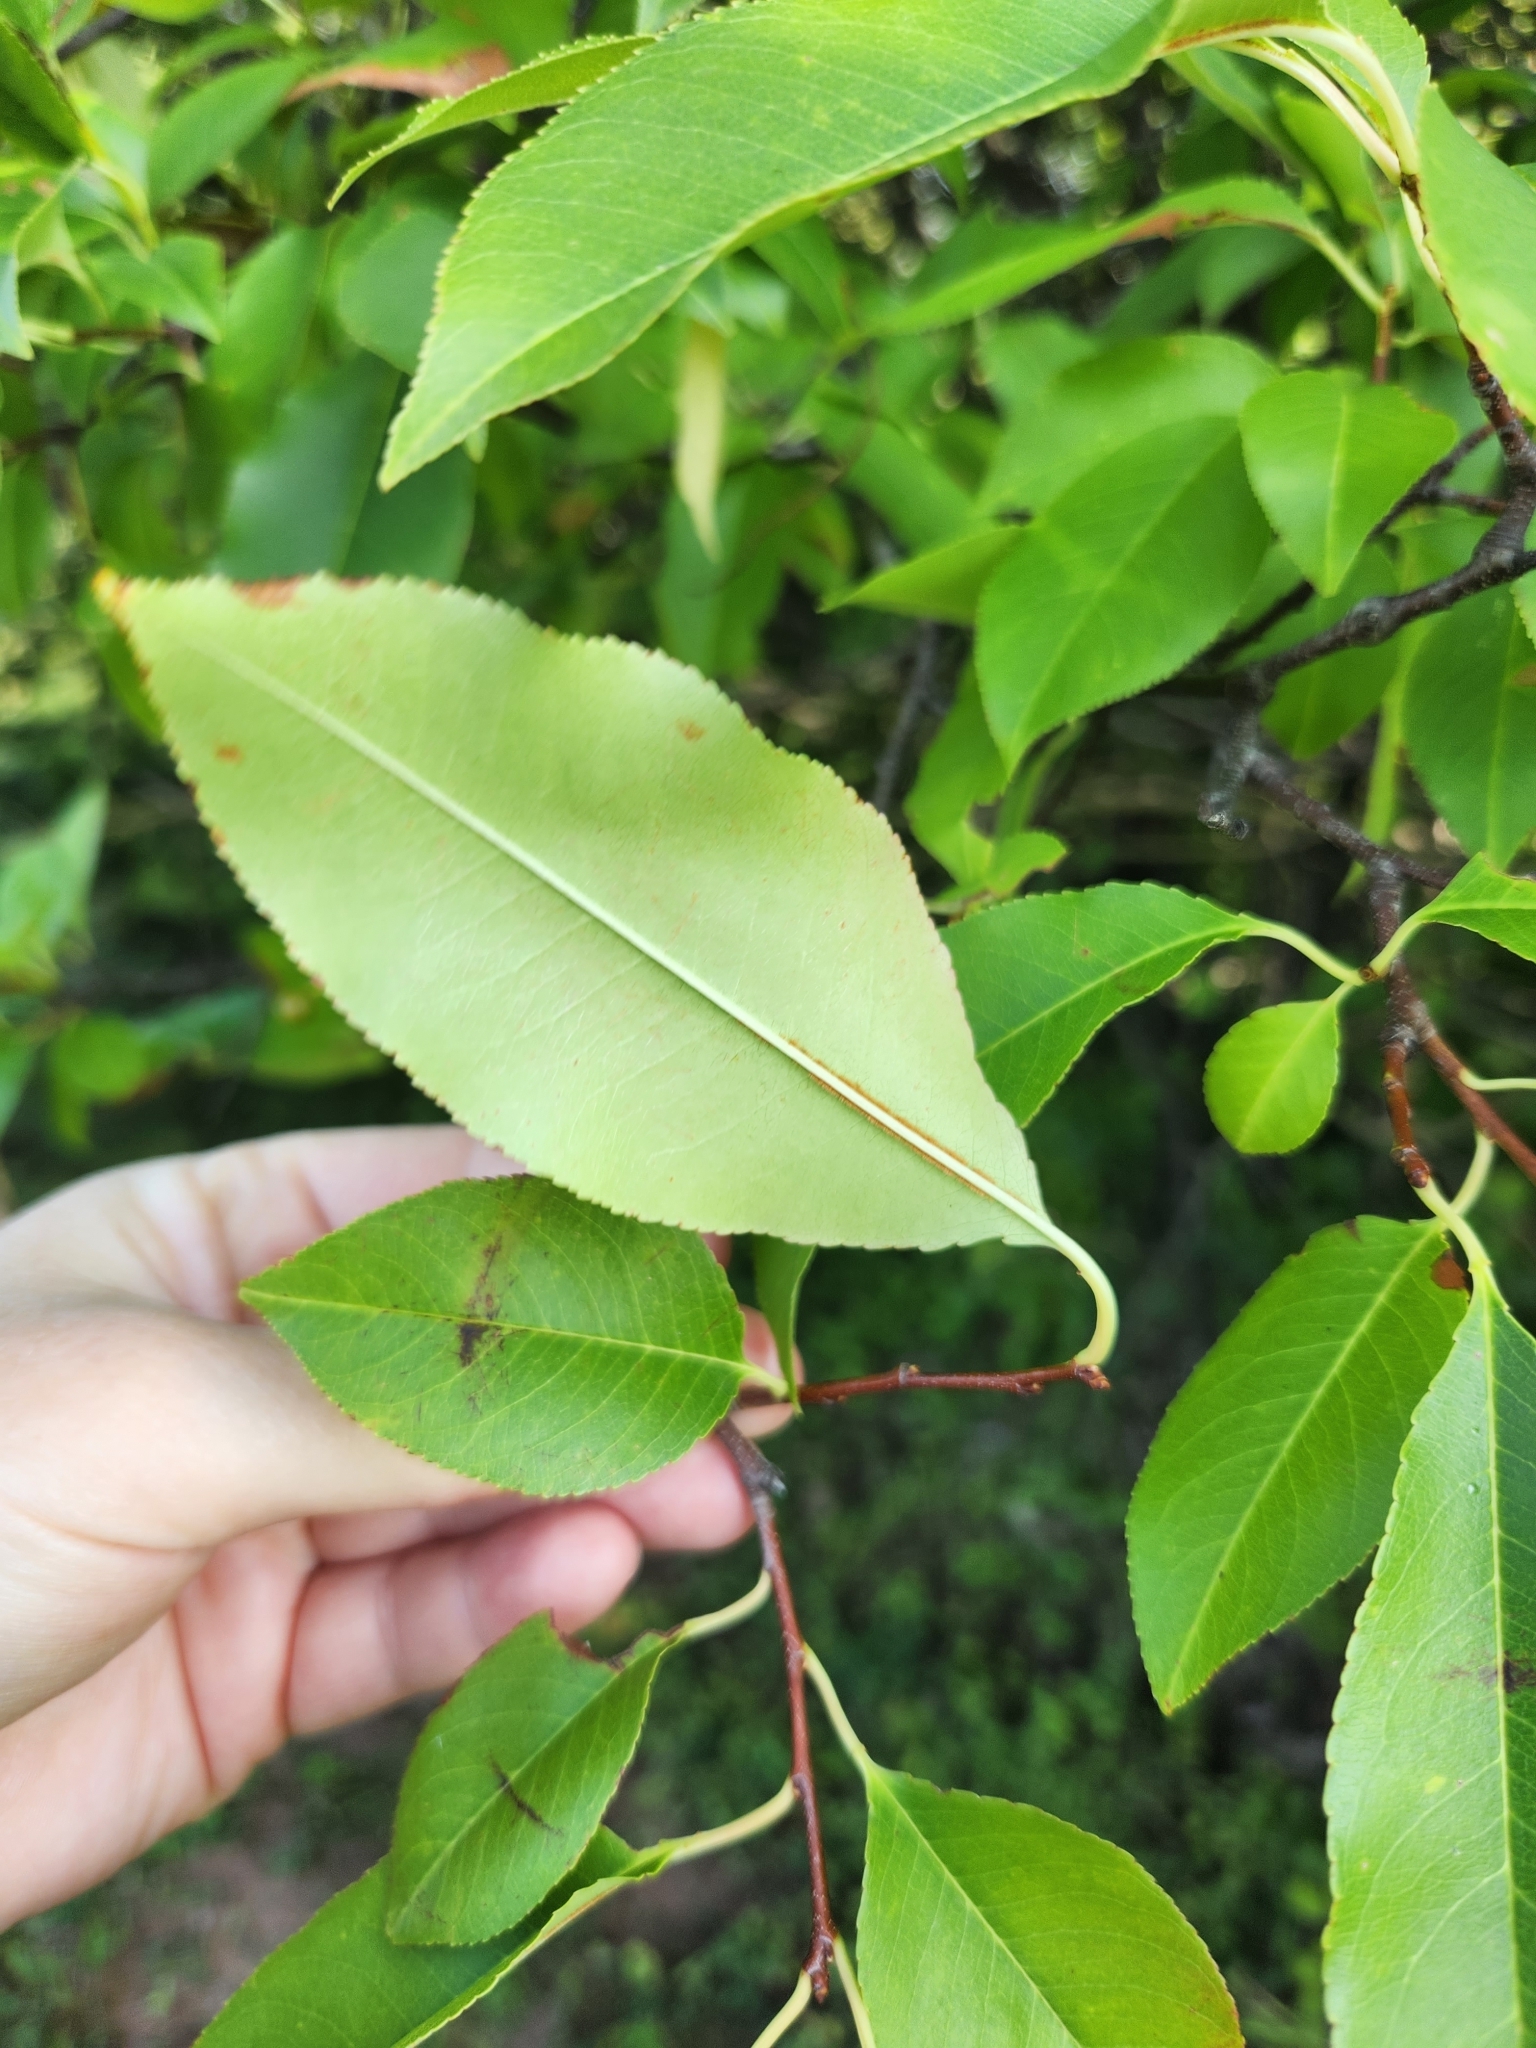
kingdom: Plantae
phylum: Tracheophyta
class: Magnoliopsida
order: Rosales
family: Rosaceae
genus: Prunus
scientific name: Prunus serotina
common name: Black cherry
